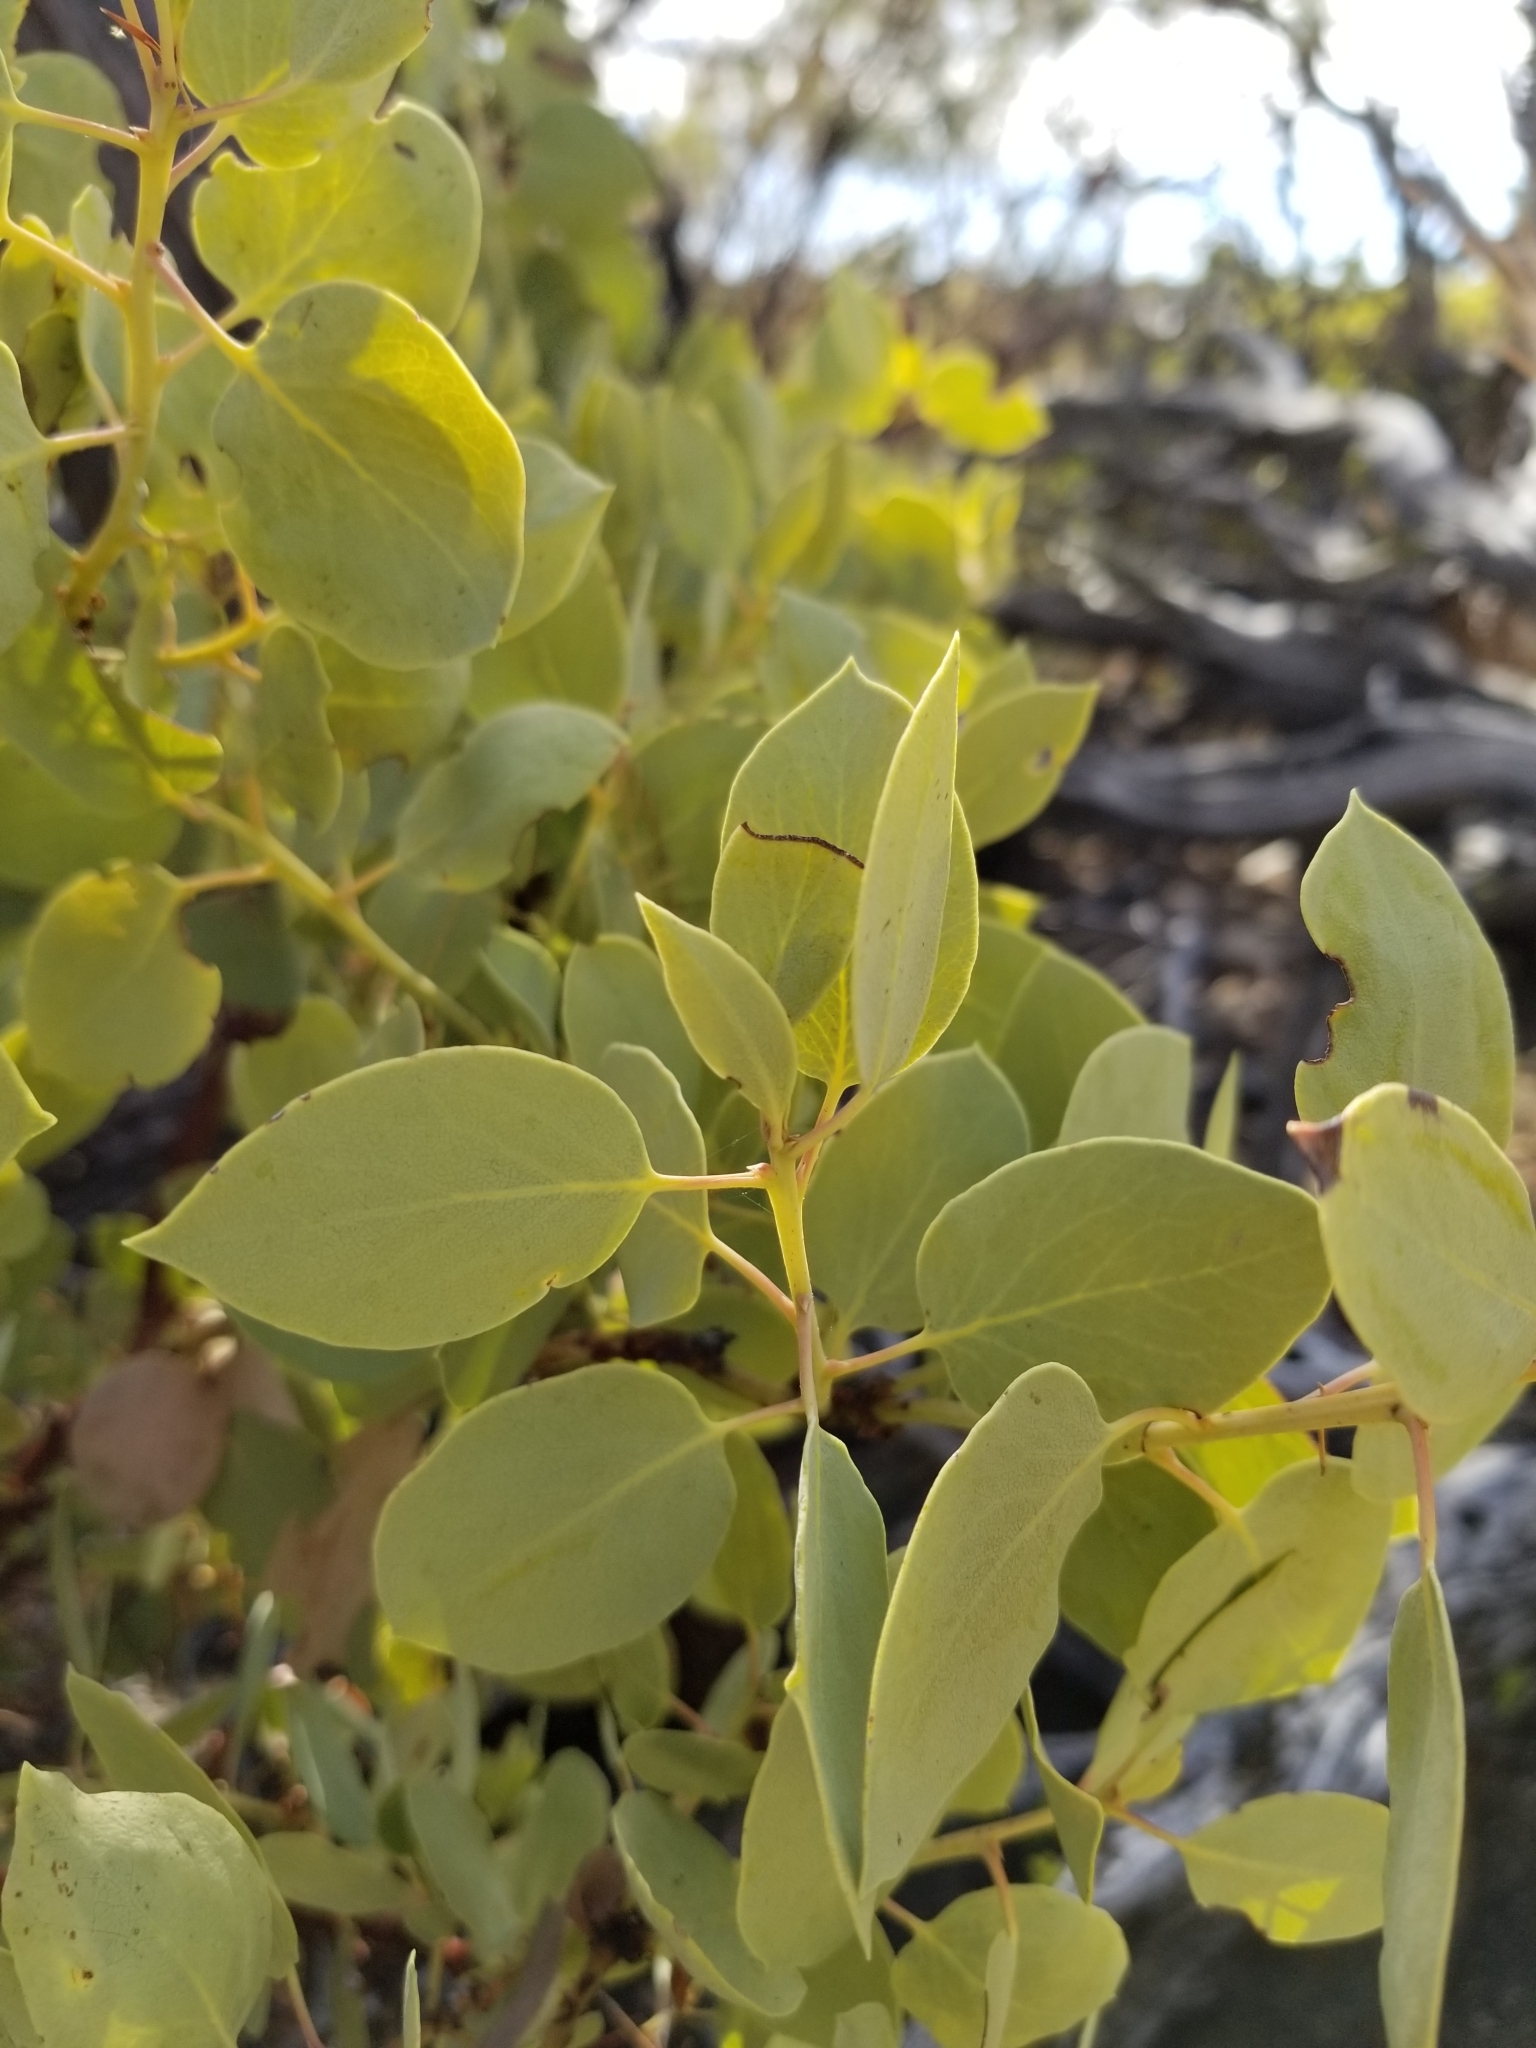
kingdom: Plantae
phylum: Tracheophyta
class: Magnoliopsida
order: Ericales
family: Ericaceae
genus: Arctostaphylos
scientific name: Arctostaphylos glauca
